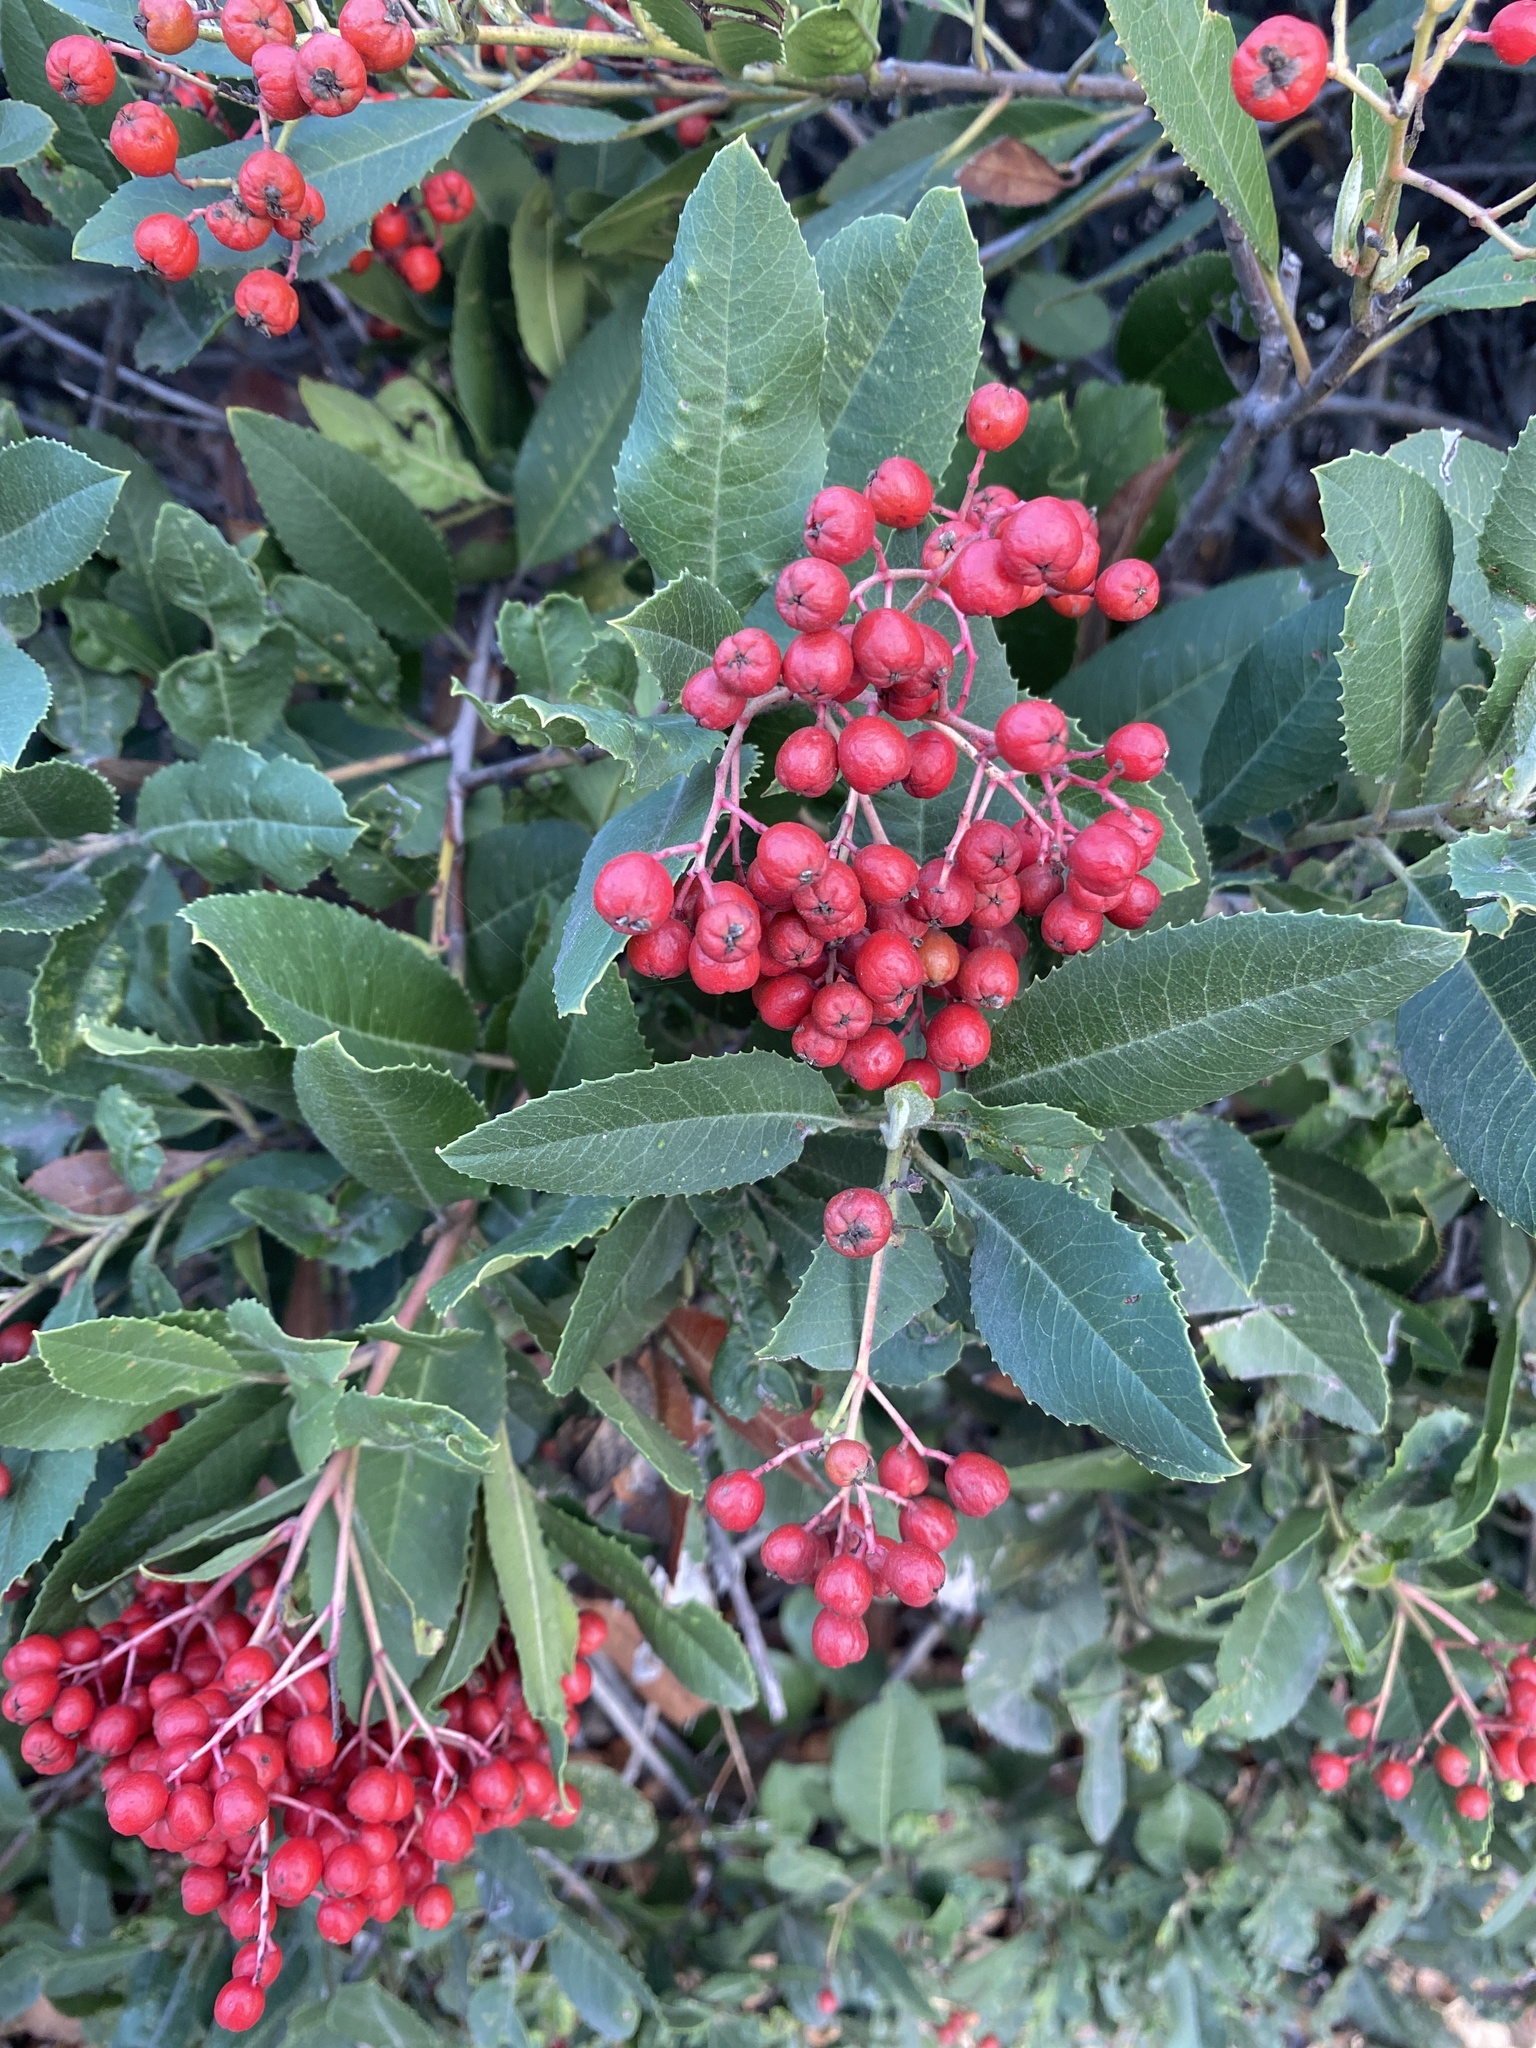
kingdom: Plantae
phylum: Tracheophyta
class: Magnoliopsida
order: Rosales
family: Rosaceae
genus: Heteromeles
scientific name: Heteromeles arbutifolia
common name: California-holly
